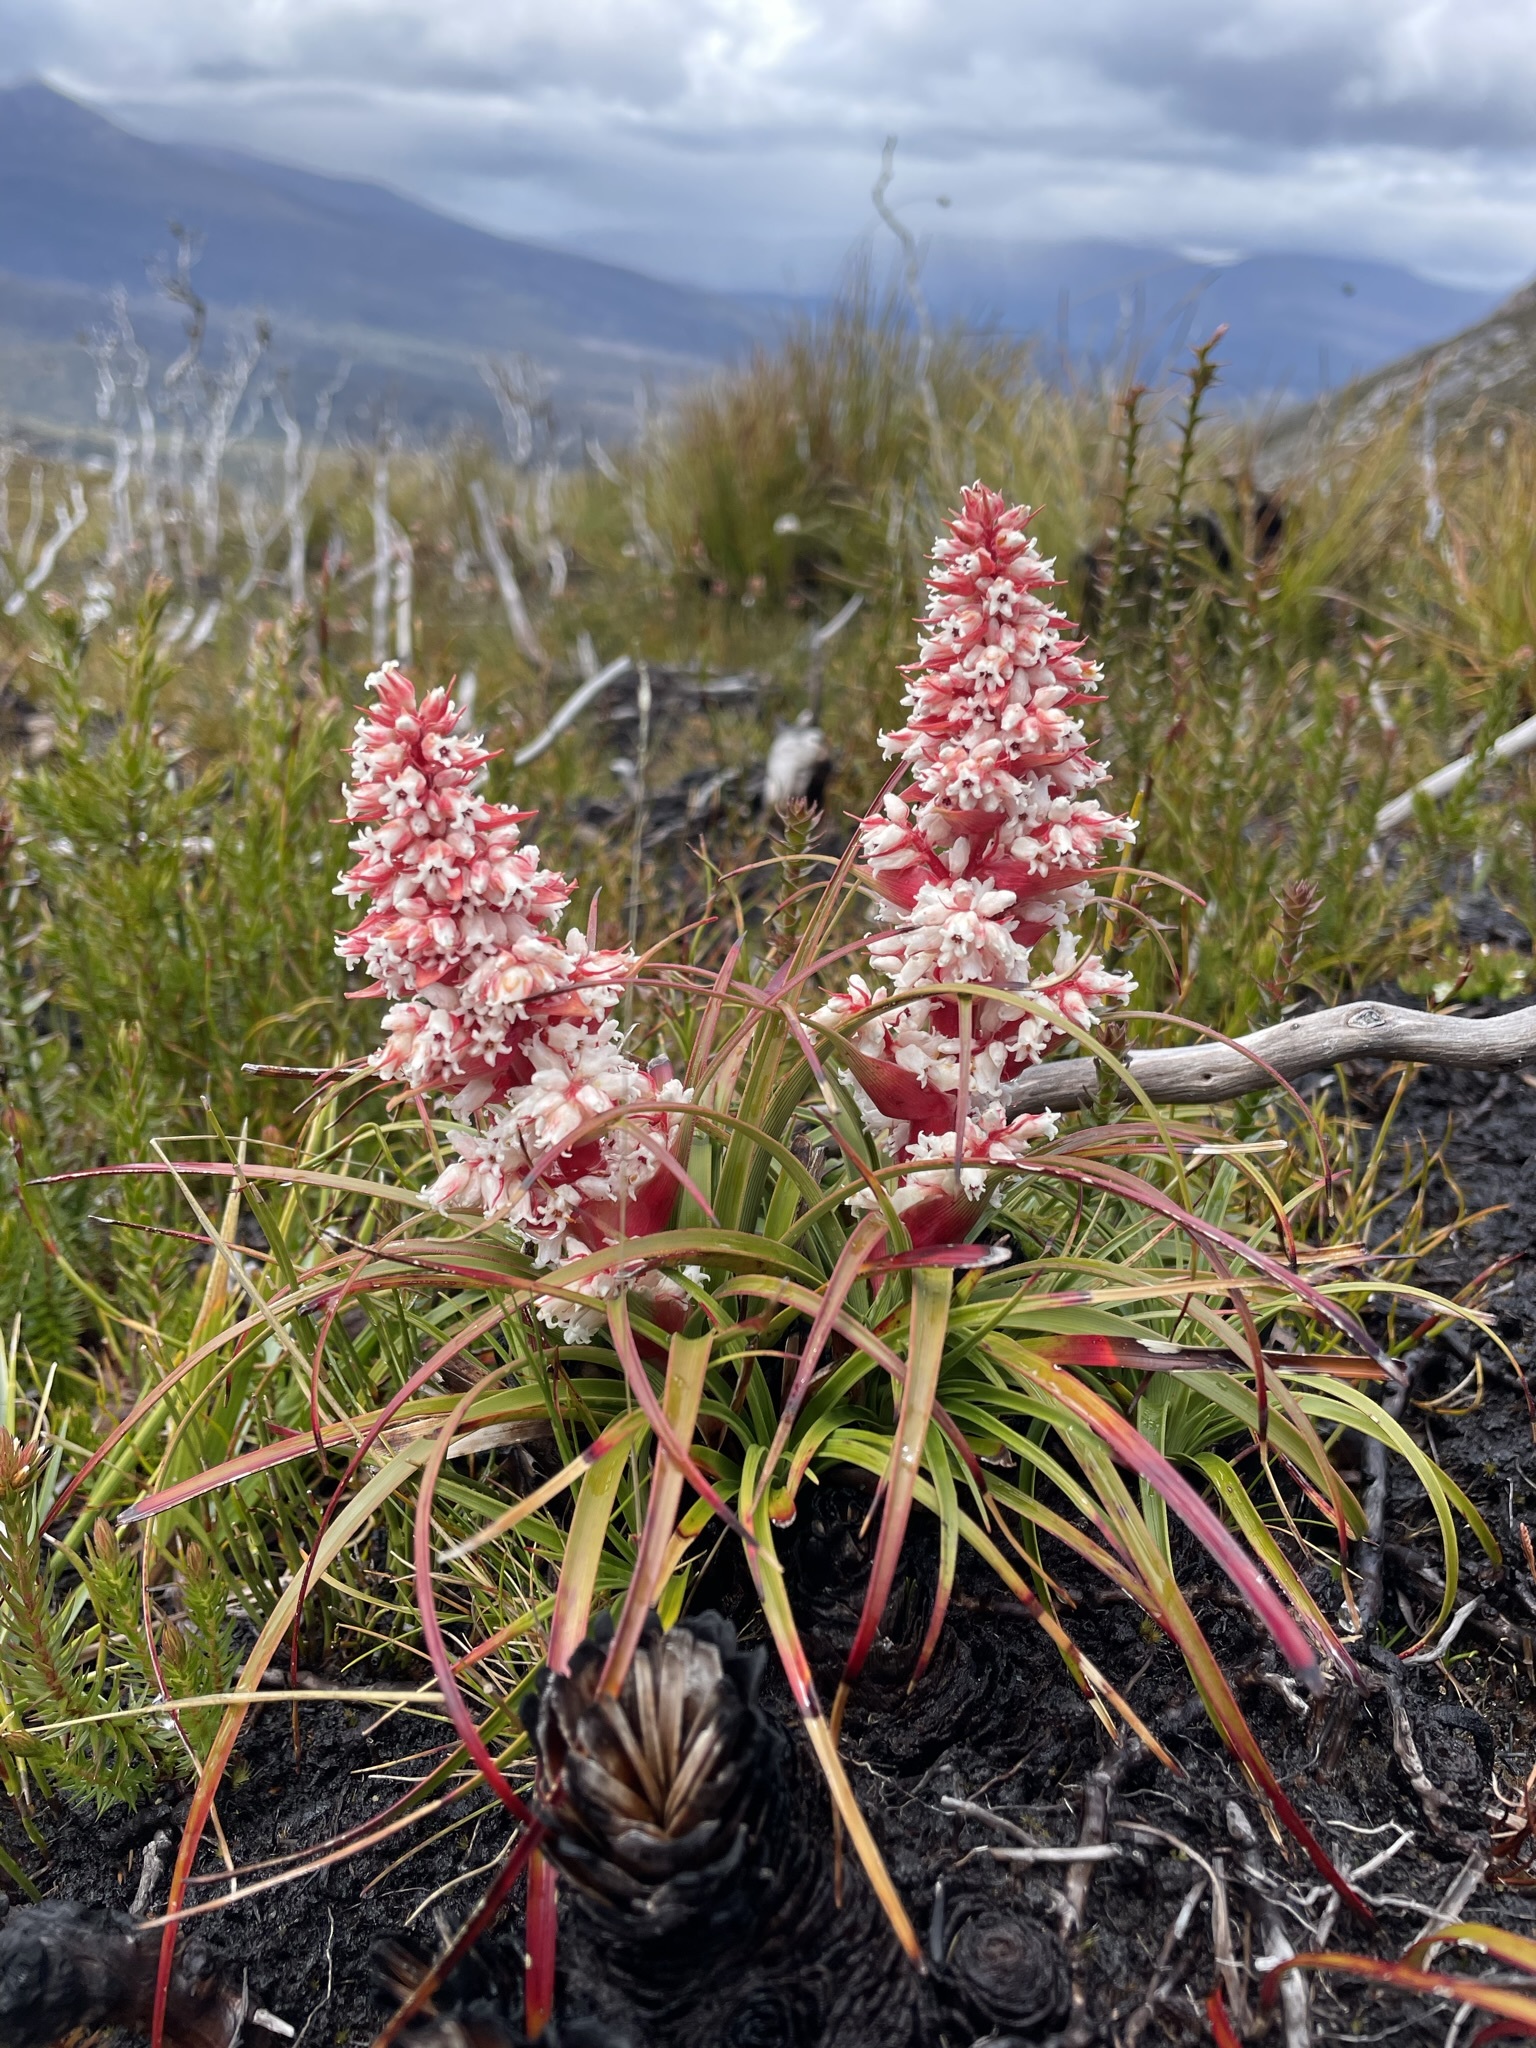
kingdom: Plantae
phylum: Tracheophyta
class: Magnoliopsida
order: Ericales
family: Ericaceae
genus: Dracophyllum
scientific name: Dracophyllum milliganii
